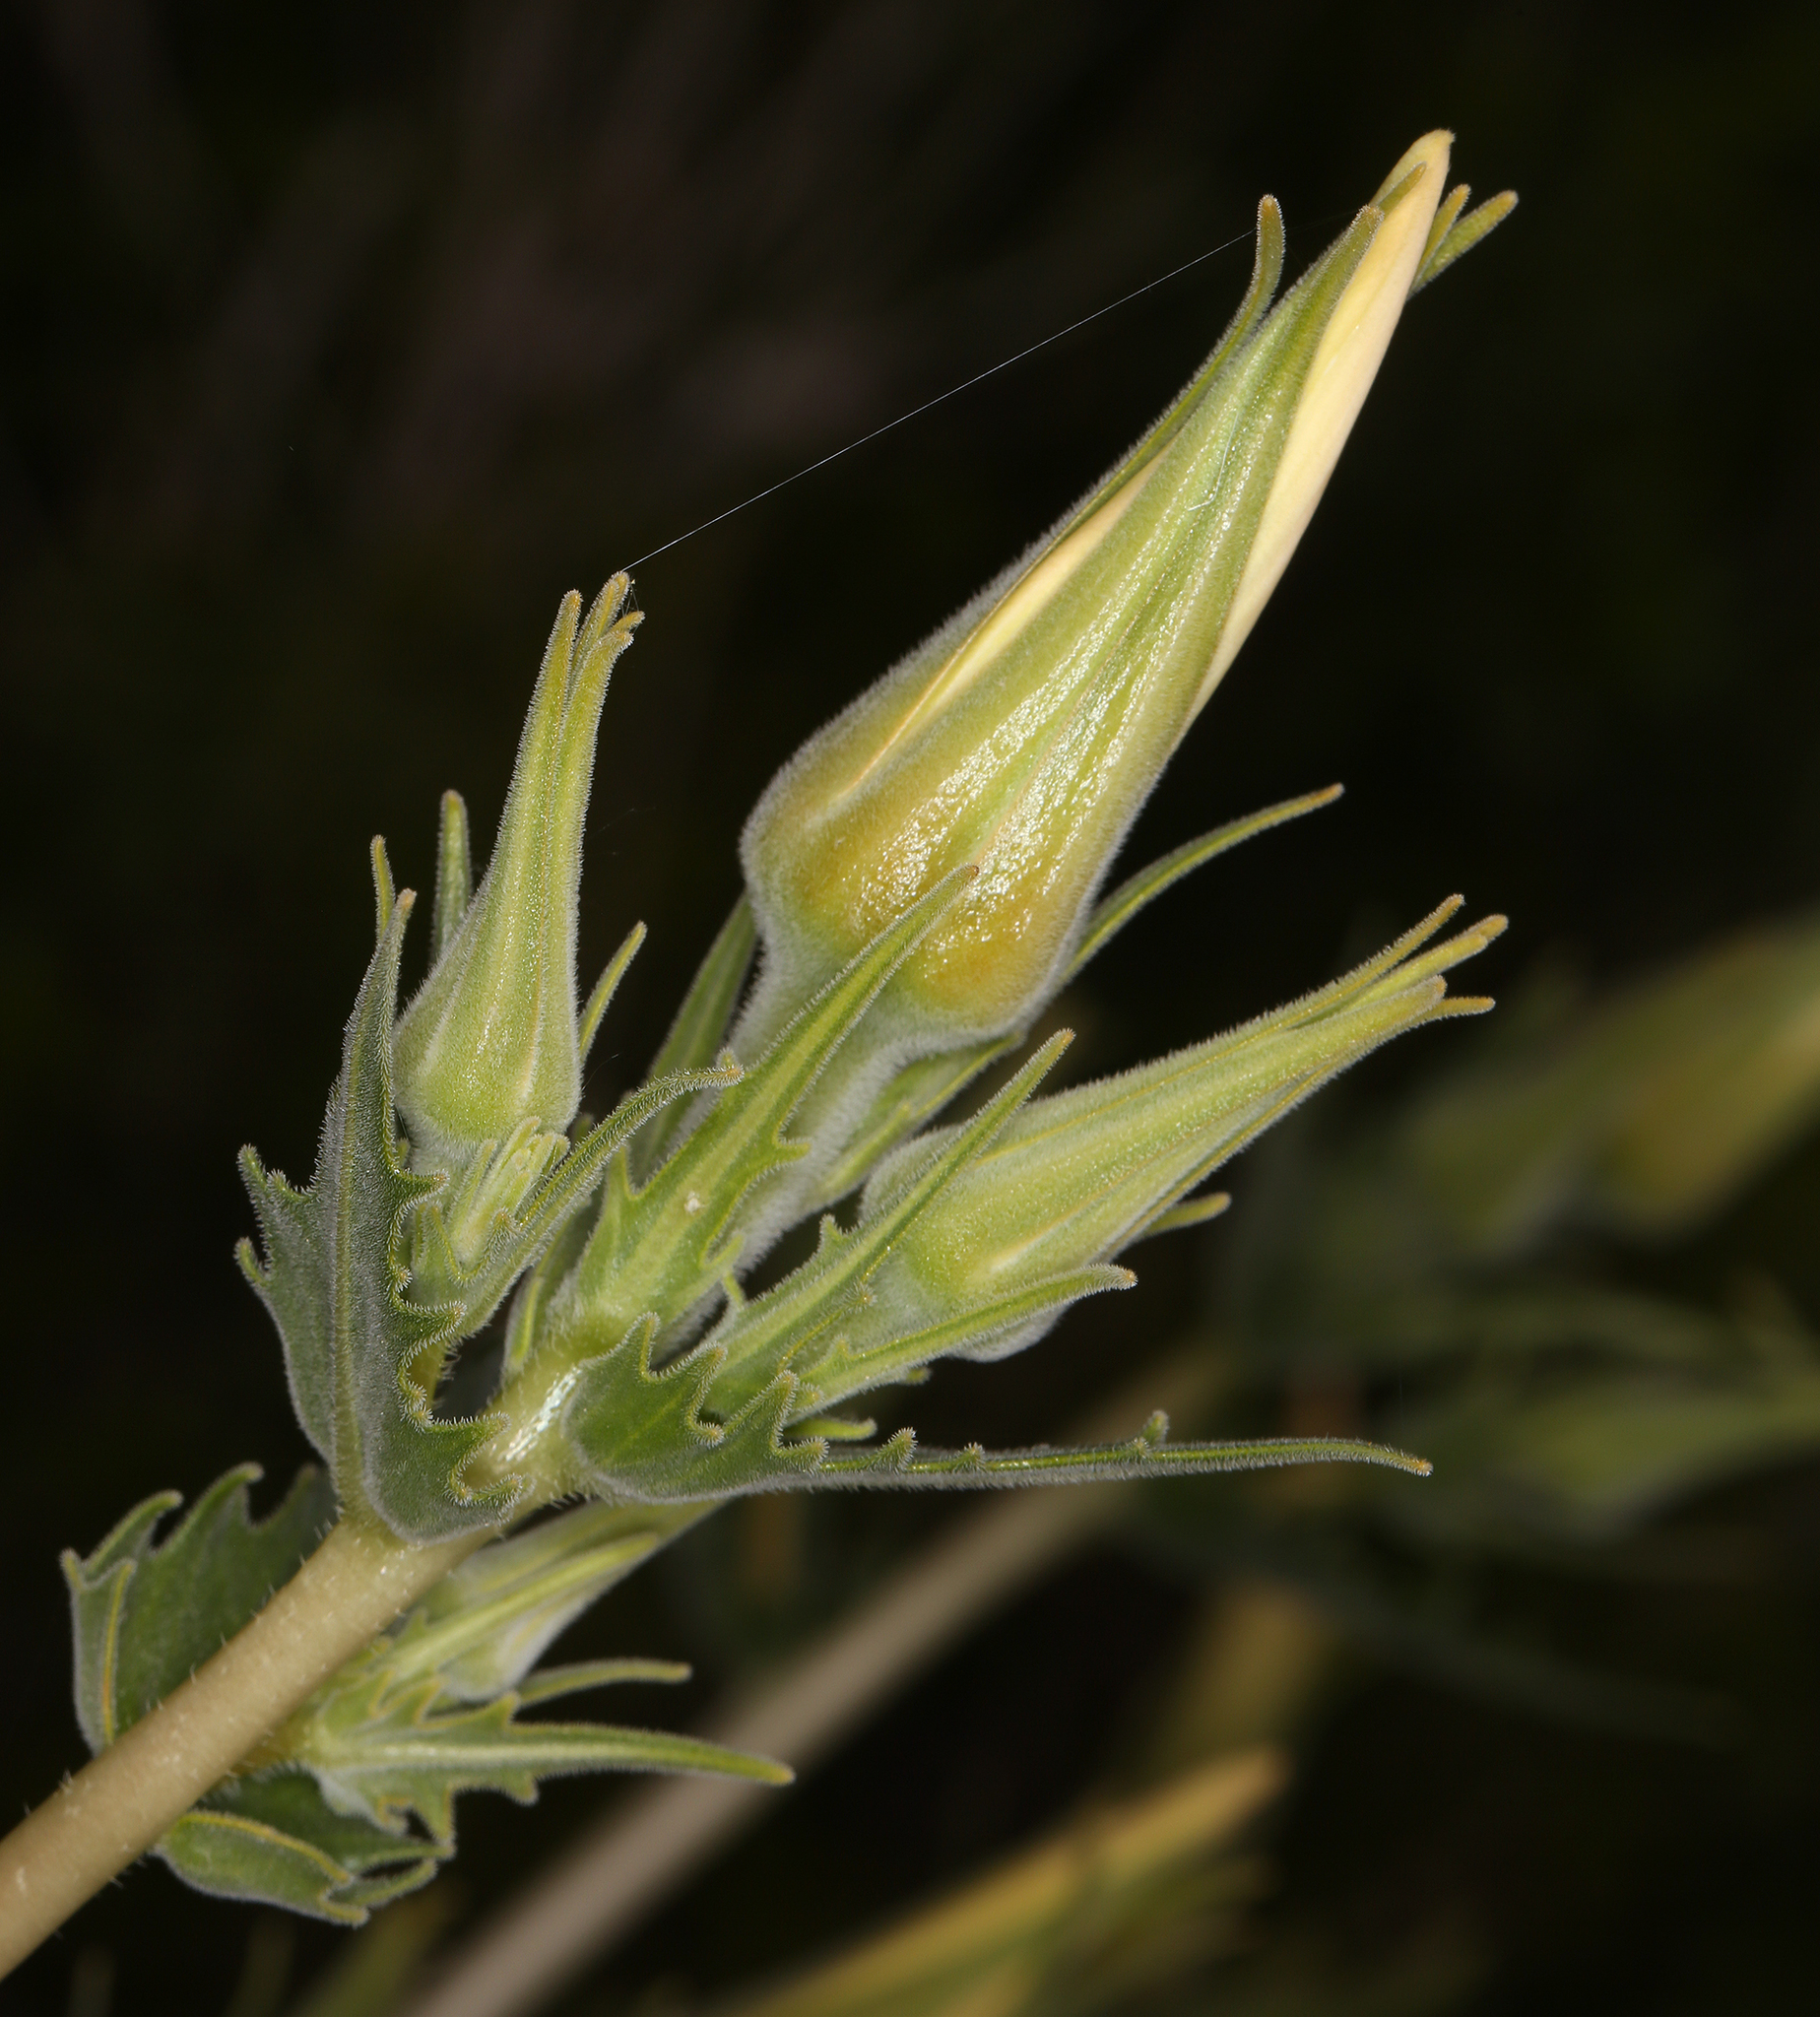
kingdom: Plantae
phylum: Tracheophyta
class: Magnoliopsida
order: Cornales
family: Loasaceae
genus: Mentzelia
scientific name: Mentzelia laevicaulis
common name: Smooth-stem blazingstar
